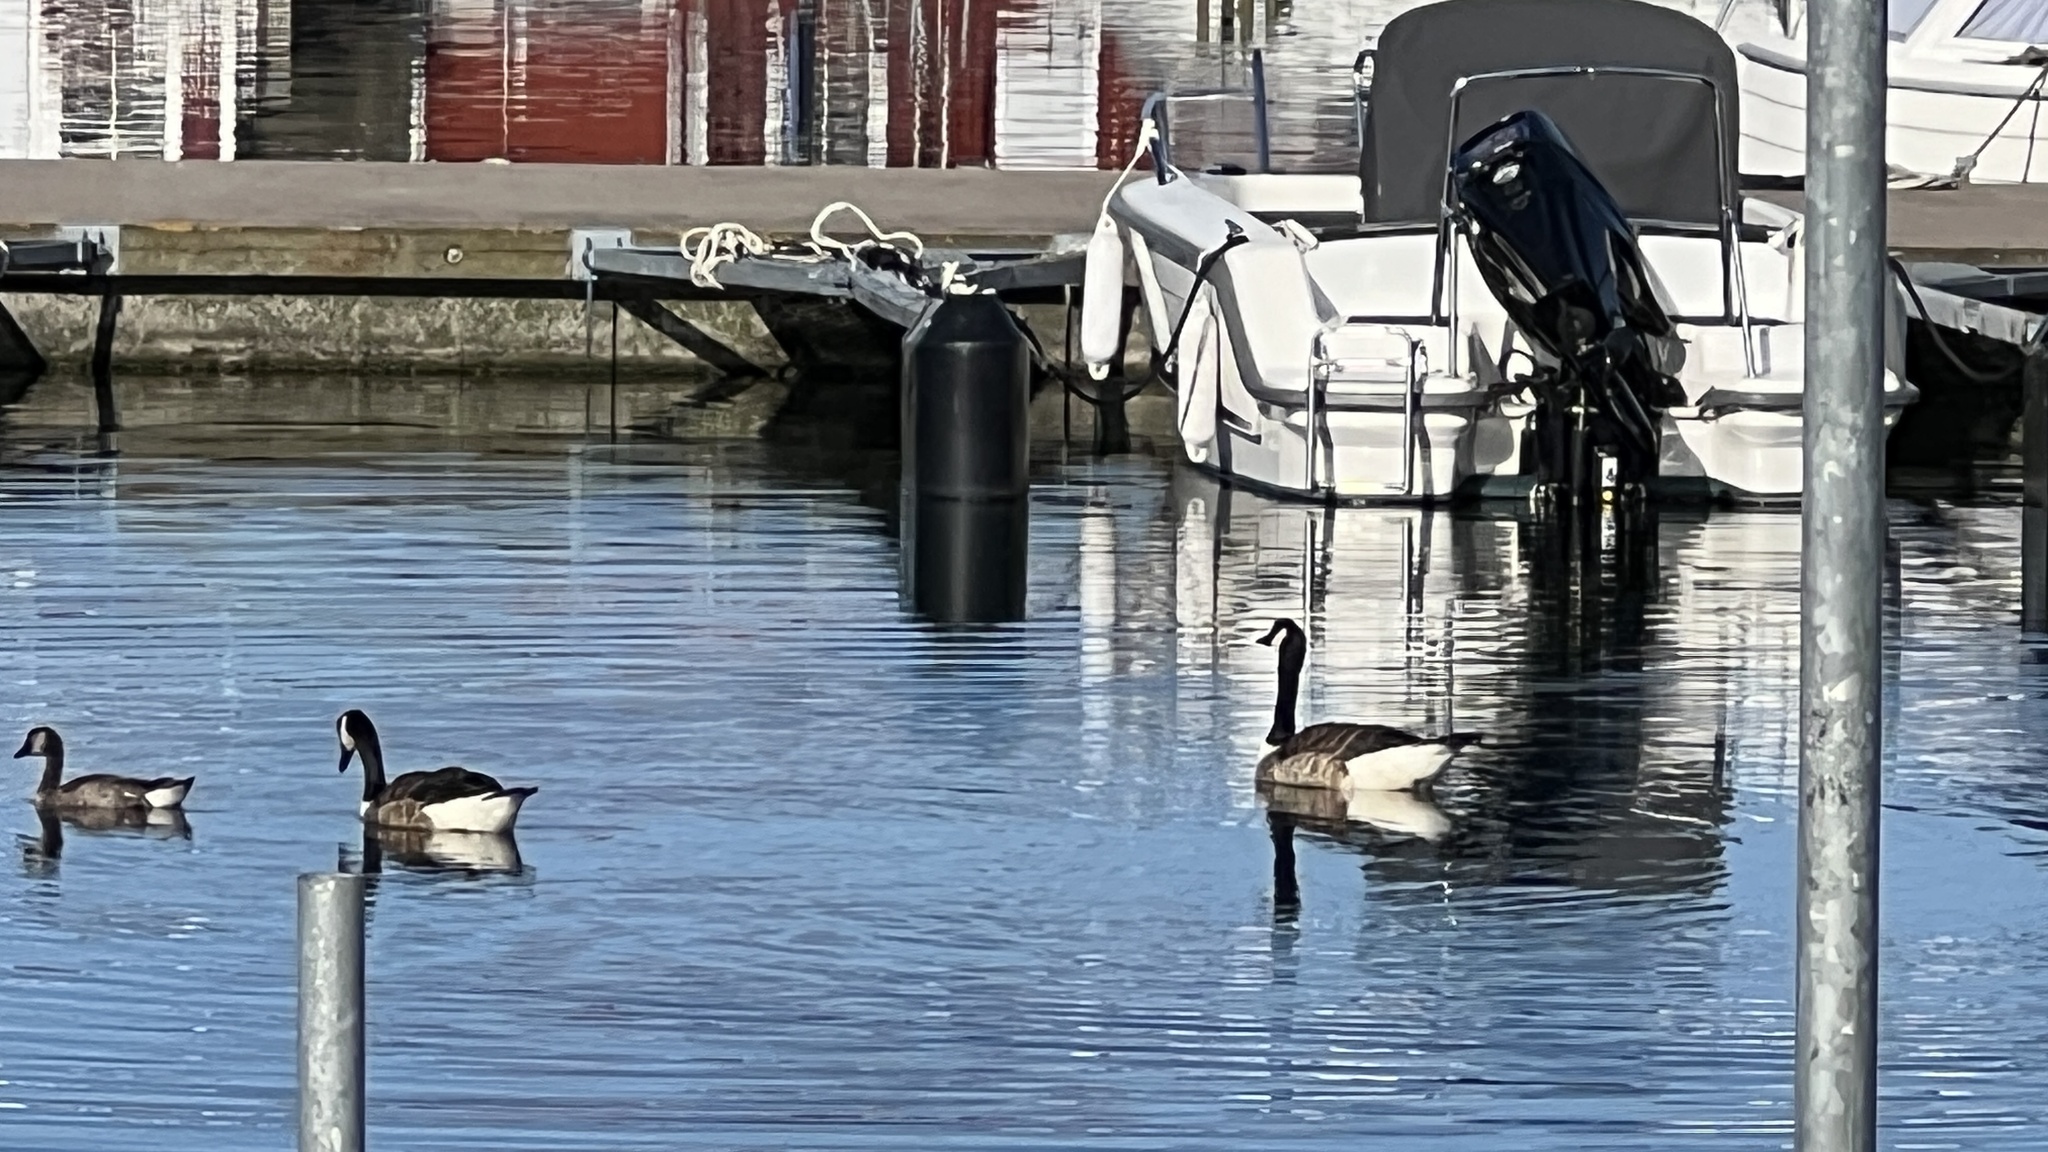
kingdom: Animalia
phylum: Chordata
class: Aves
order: Anseriformes
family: Anatidae
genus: Branta
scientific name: Branta canadensis
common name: Canada goose
